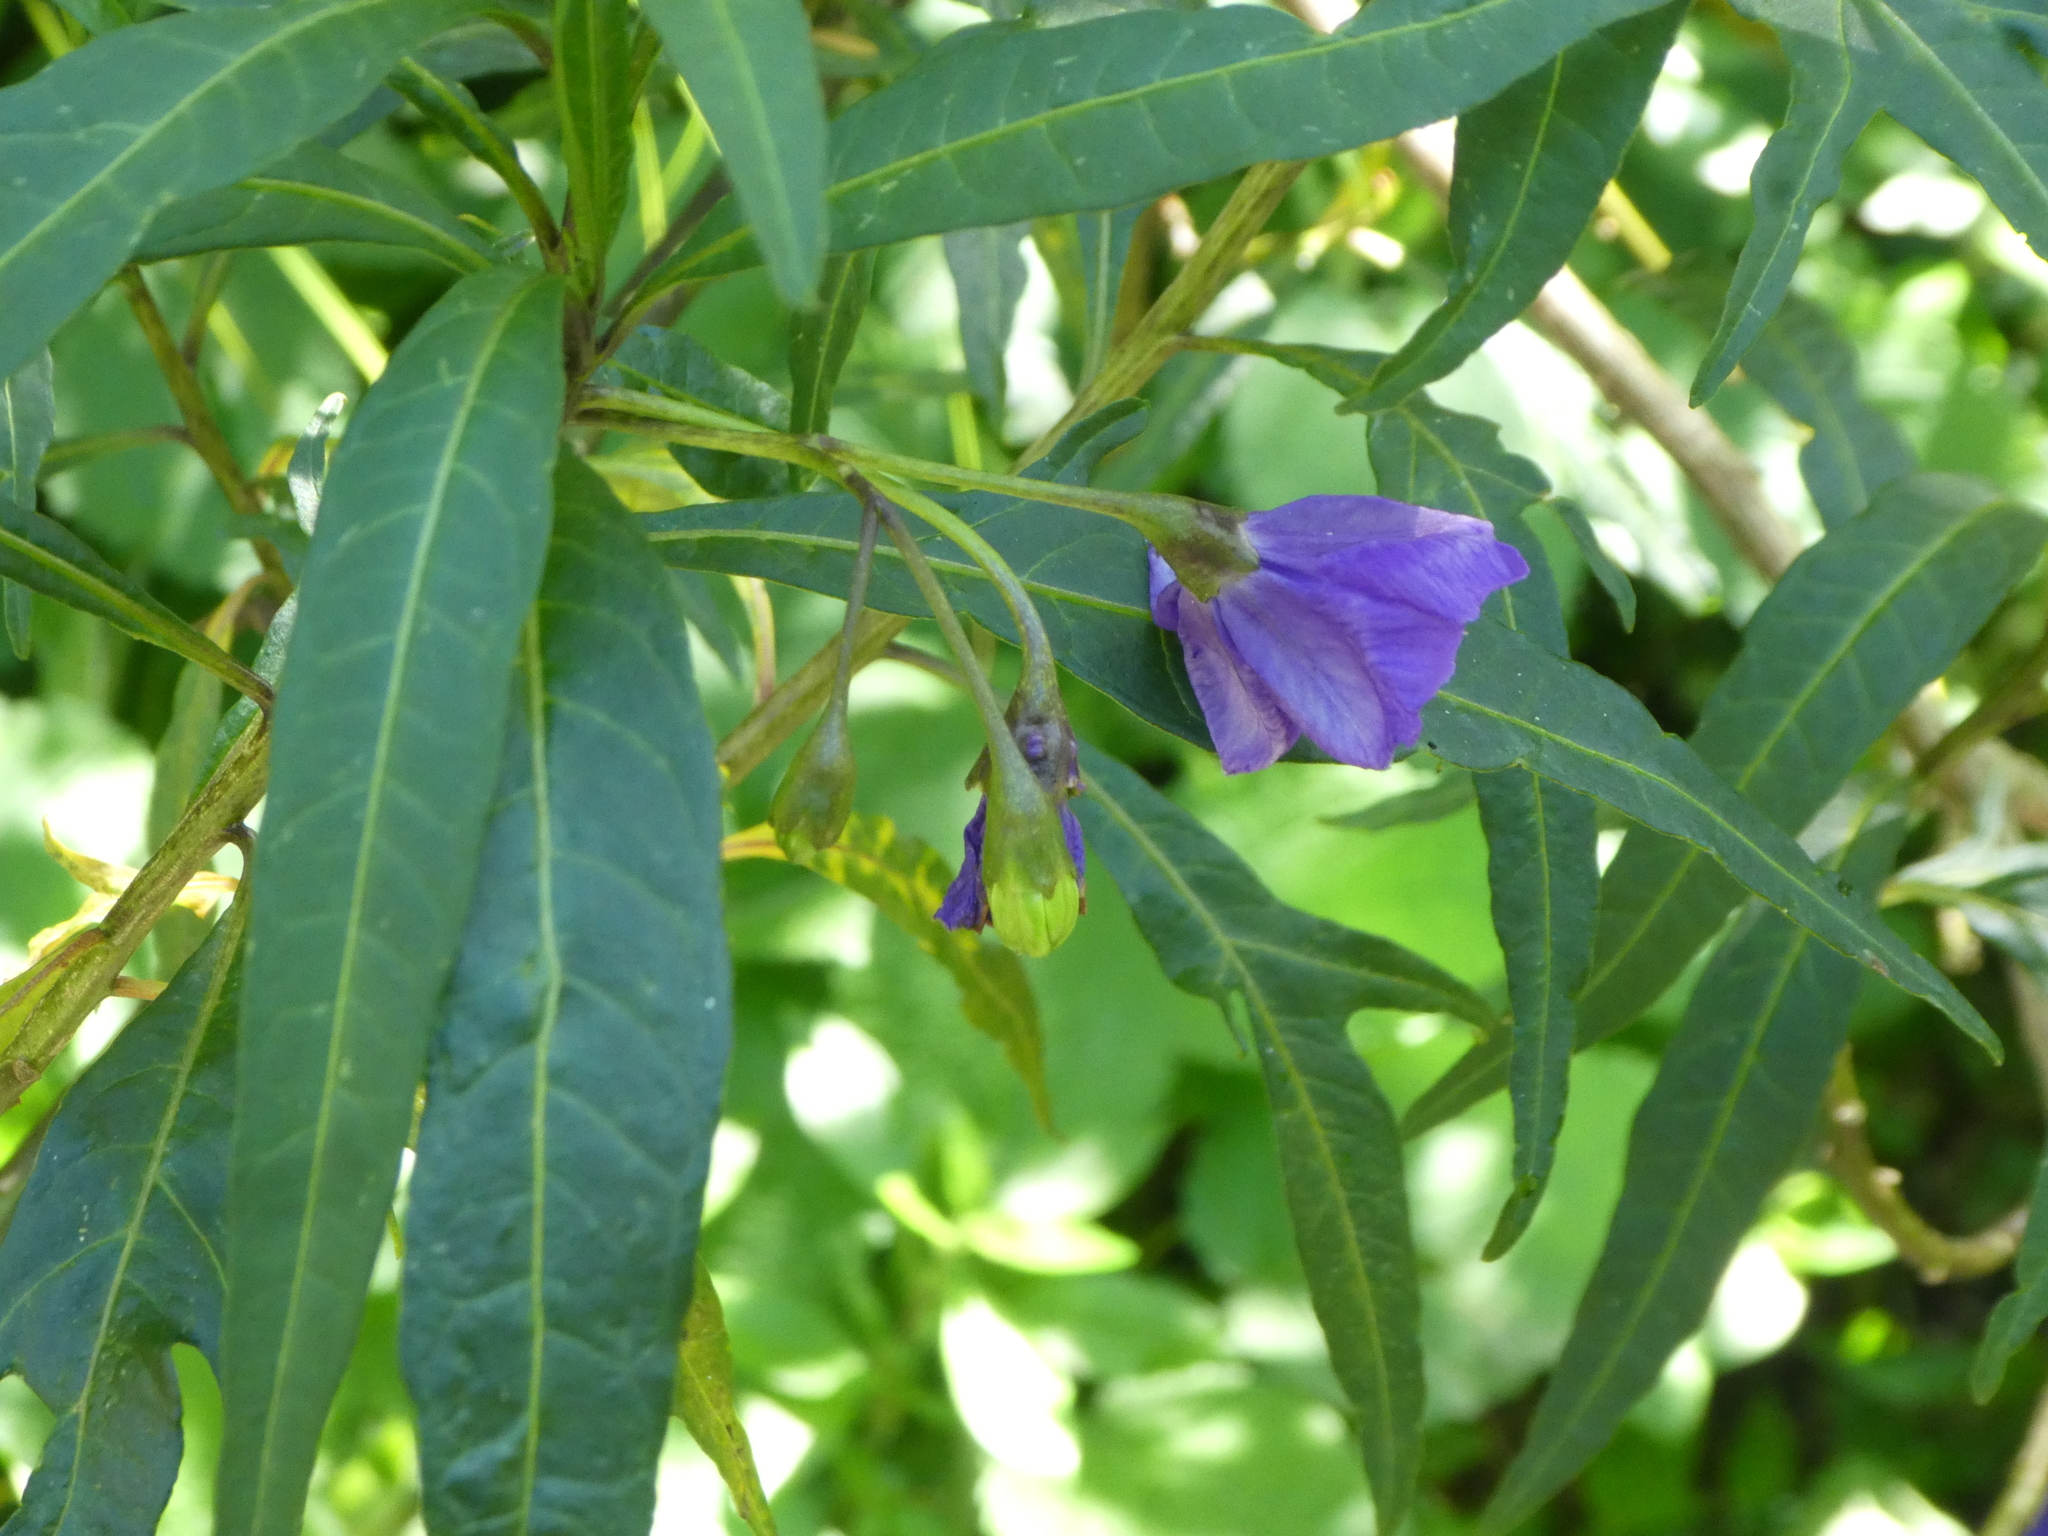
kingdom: Plantae
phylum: Tracheophyta
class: Magnoliopsida
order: Solanales
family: Solanaceae
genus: Solanum
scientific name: Solanum laciniatum
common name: Kangaroo-apple
